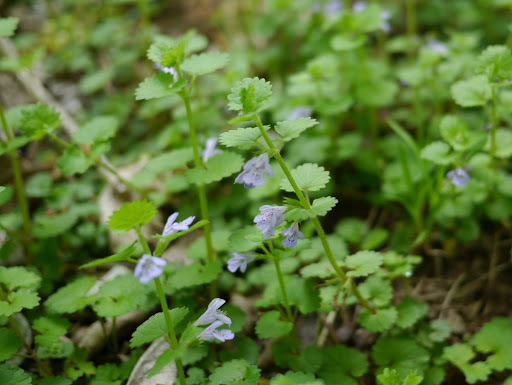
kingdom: Plantae
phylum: Tracheophyta
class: Magnoliopsida
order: Lamiales
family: Lamiaceae
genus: Glechoma
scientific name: Glechoma hederacea
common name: Ground ivy
